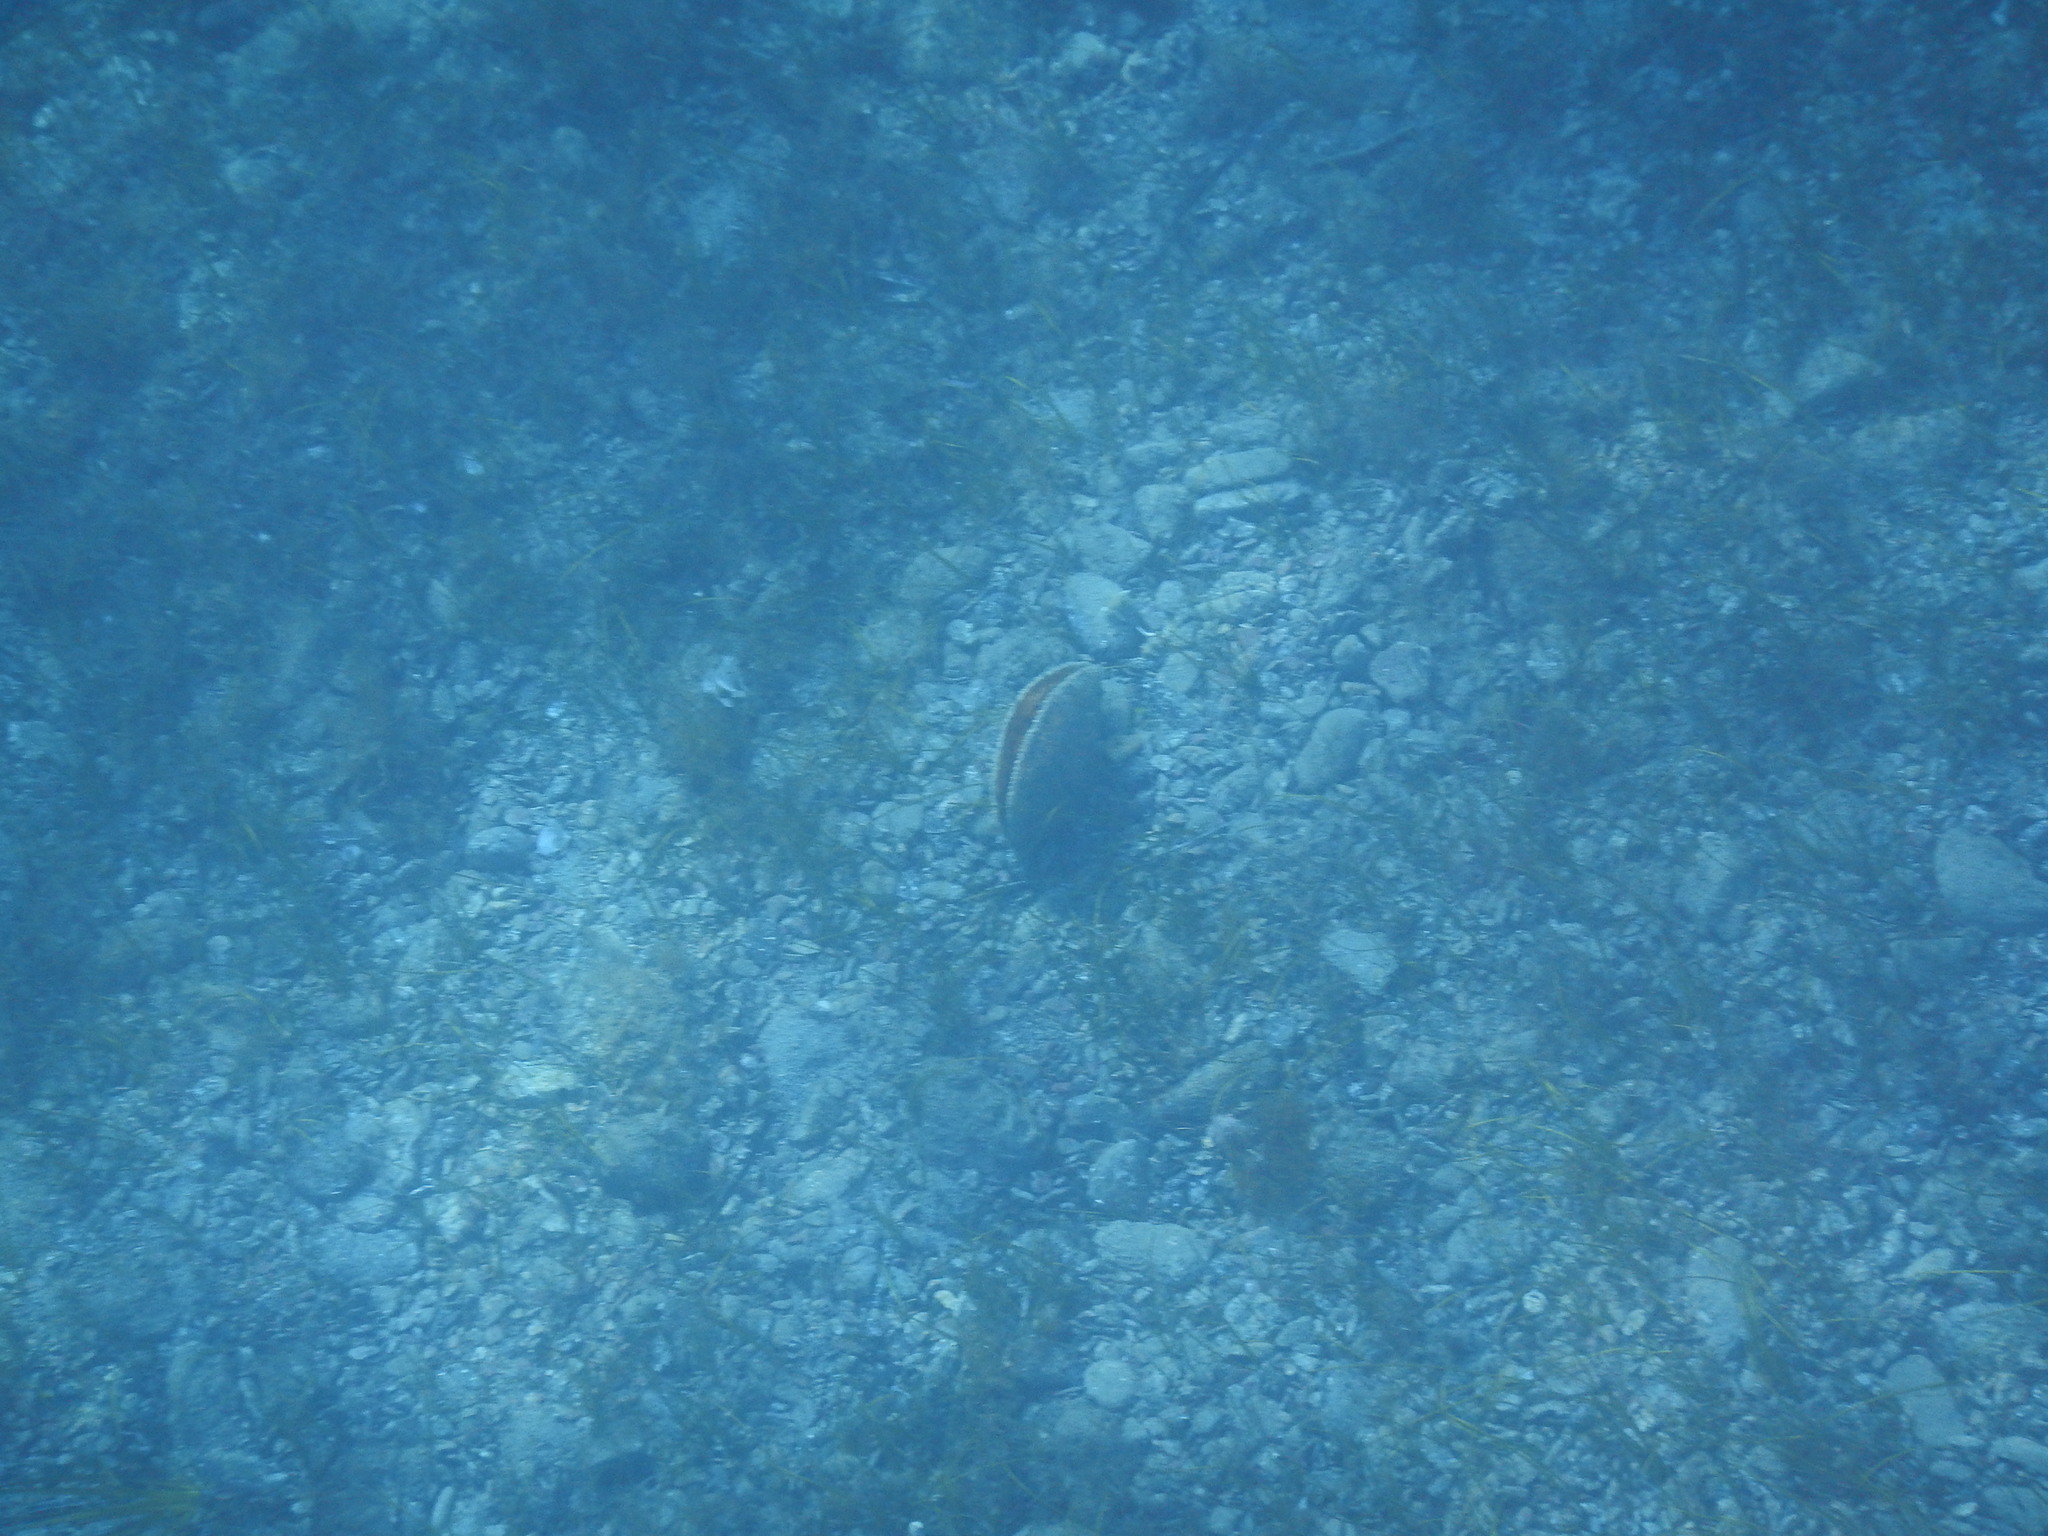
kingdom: Animalia
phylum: Mollusca
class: Bivalvia
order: Ostreida
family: Pinnidae
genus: Pinna
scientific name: Pinna nobilis
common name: Fan mussel
